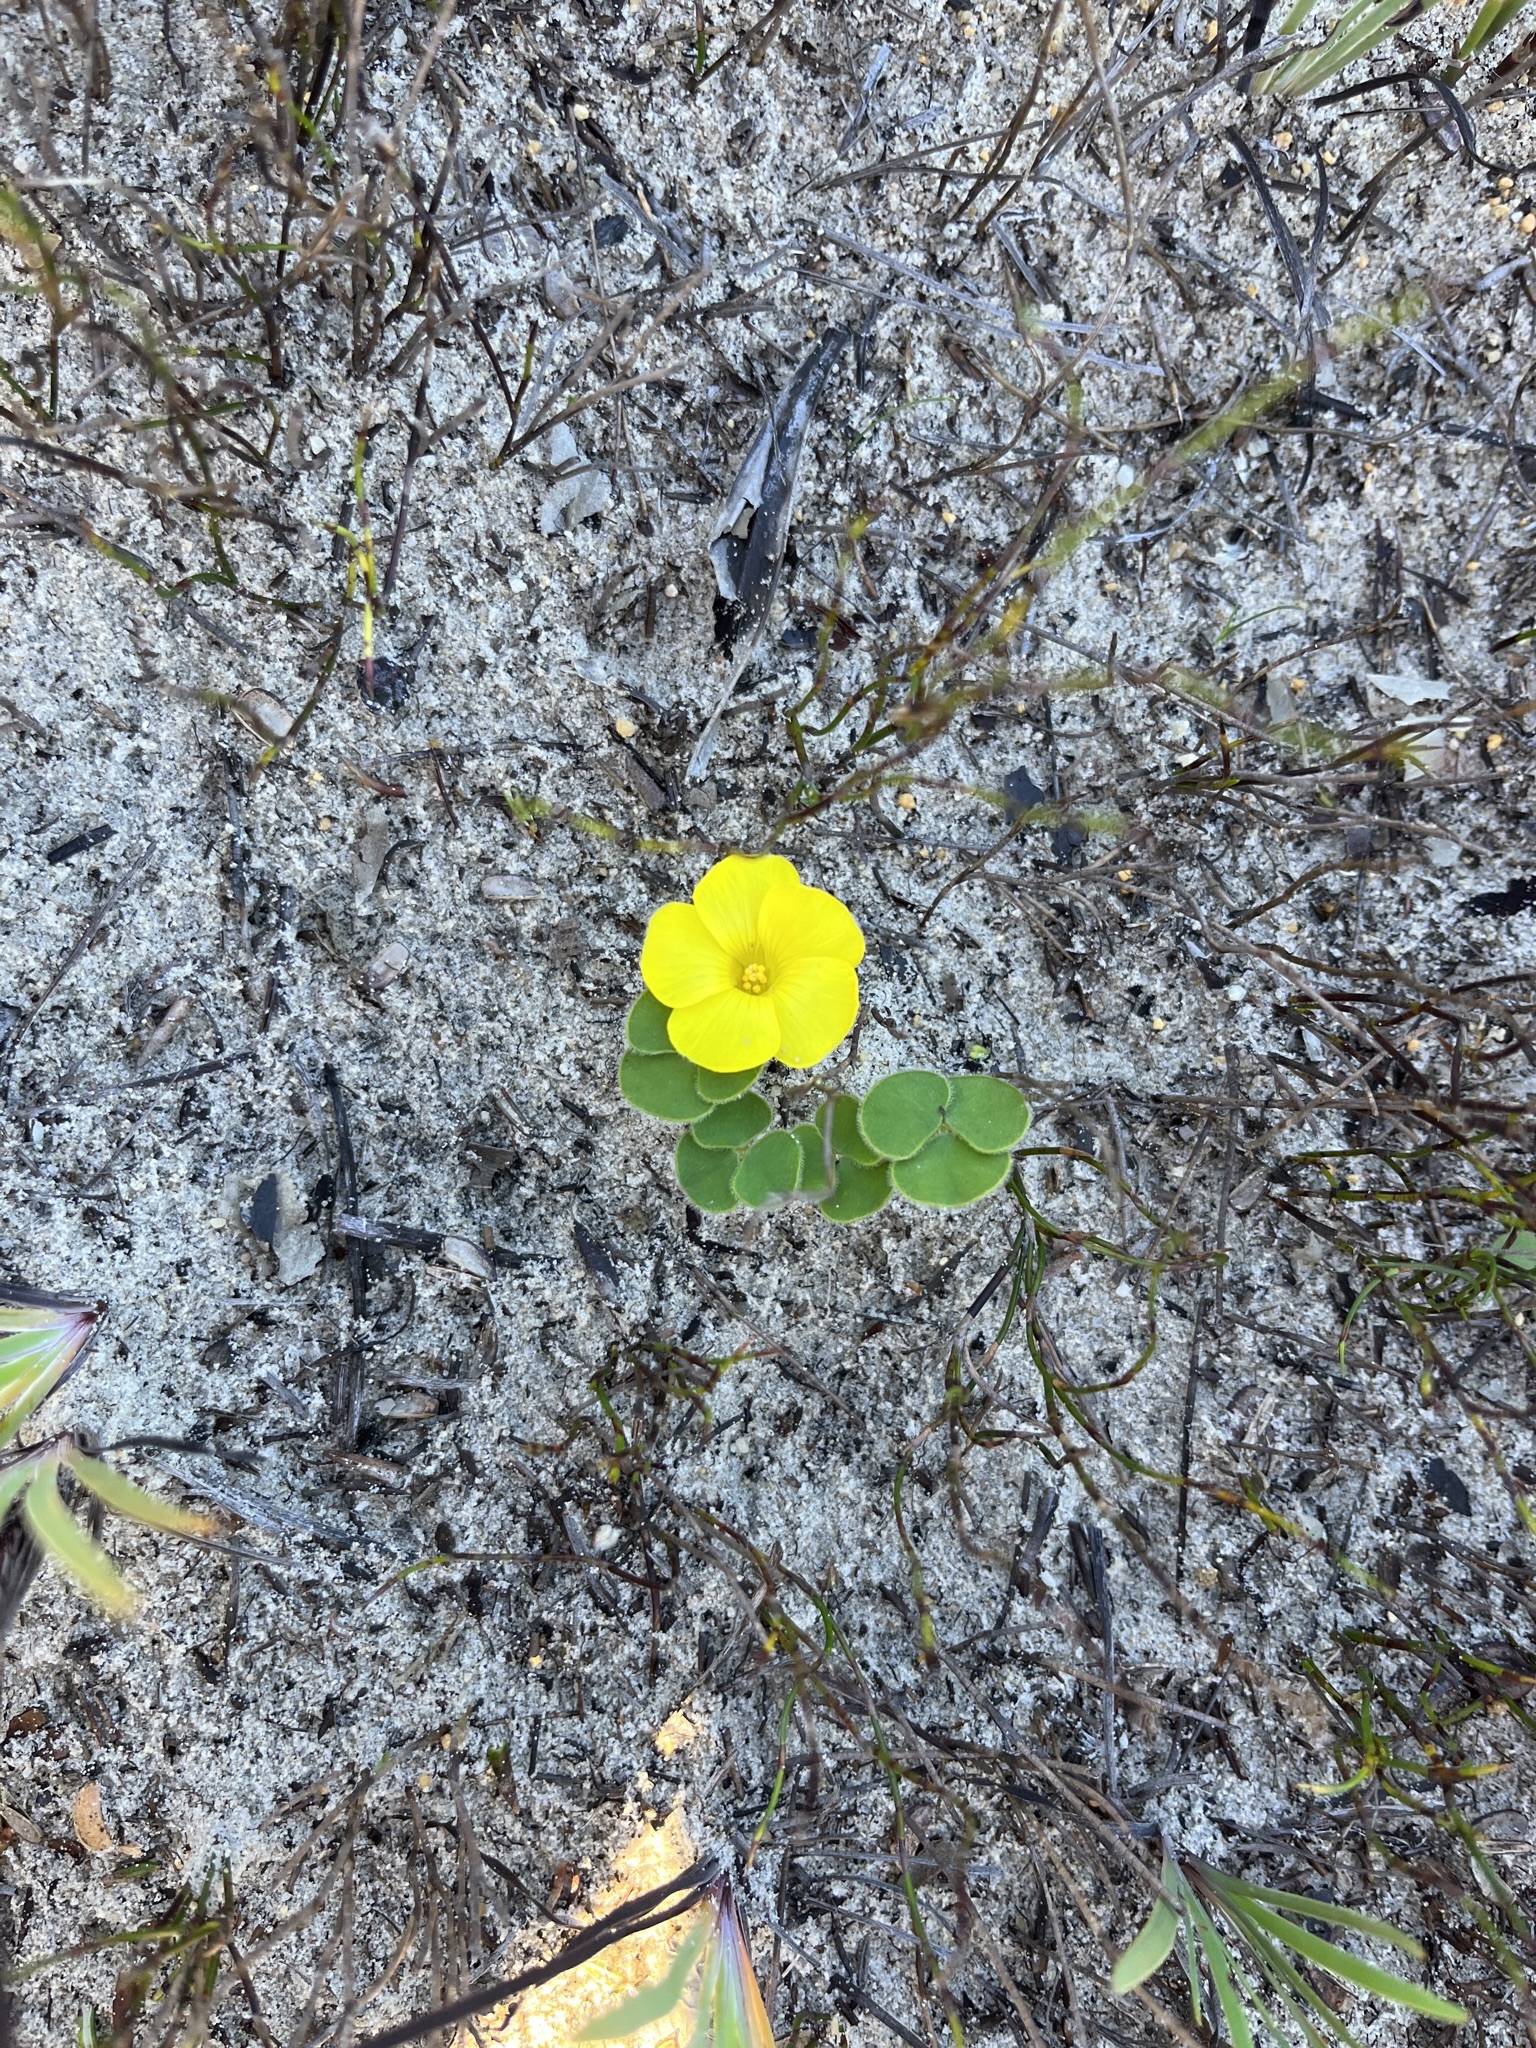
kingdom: Plantae
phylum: Tracheophyta
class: Magnoliopsida
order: Oxalidales
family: Oxalidaceae
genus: Oxalis
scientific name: Oxalis luteola
